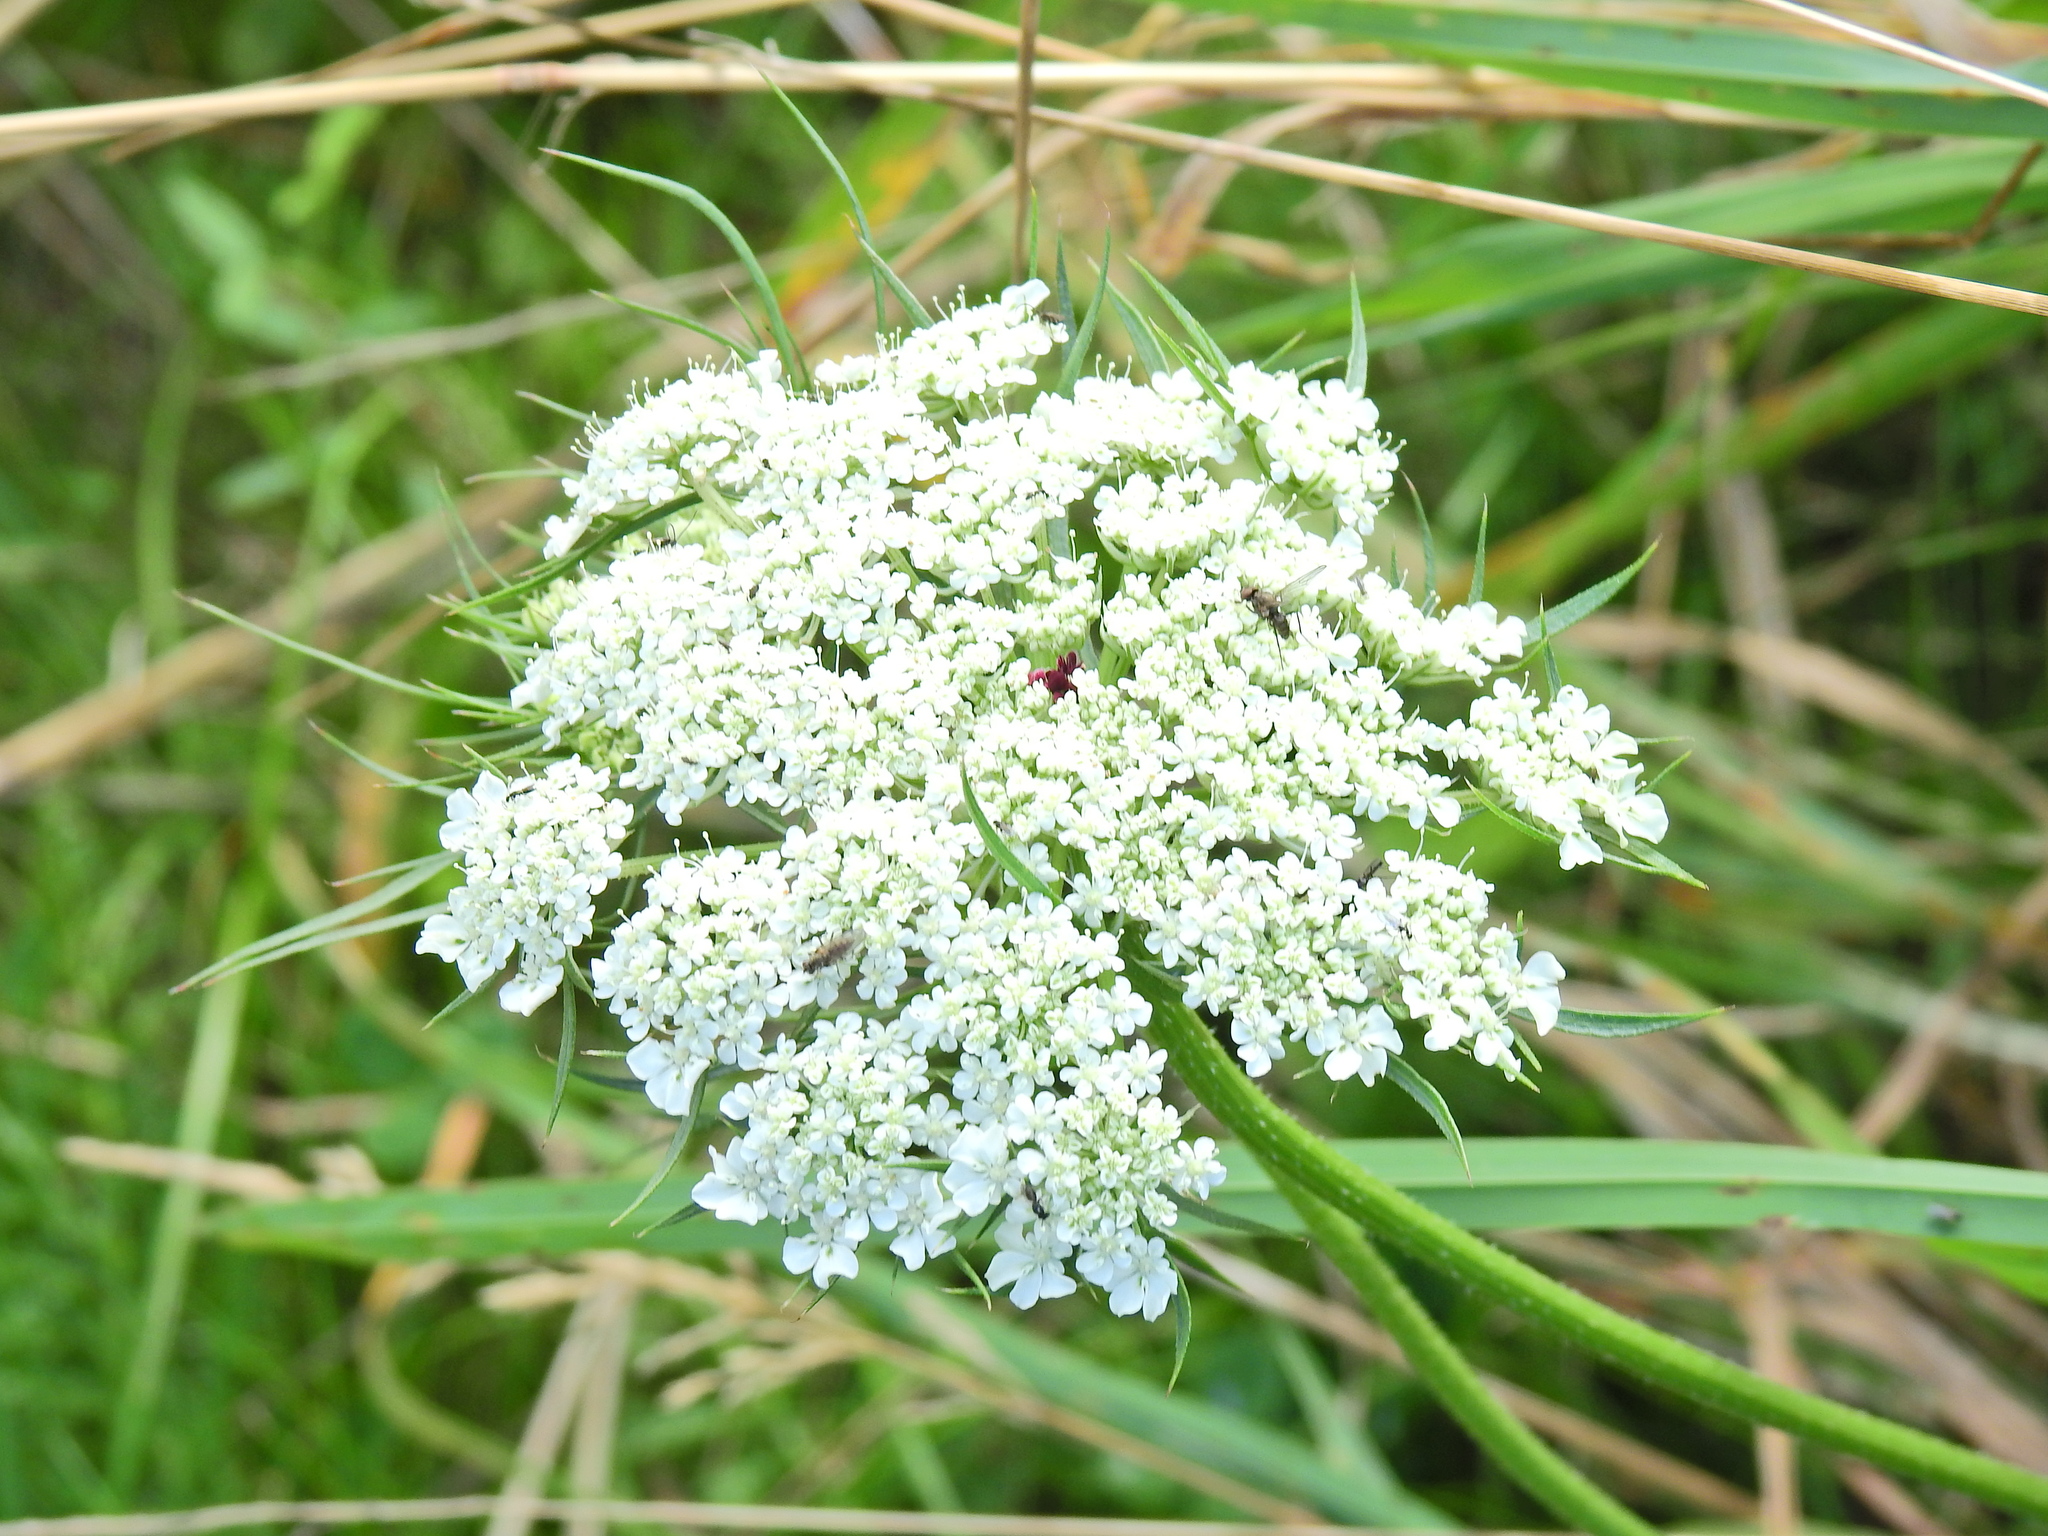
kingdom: Plantae
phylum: Tracheophyta
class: Magnoliopsida
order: Apiales
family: Apiaceae
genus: Daucus
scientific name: Daucus carota
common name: Wild carrot
